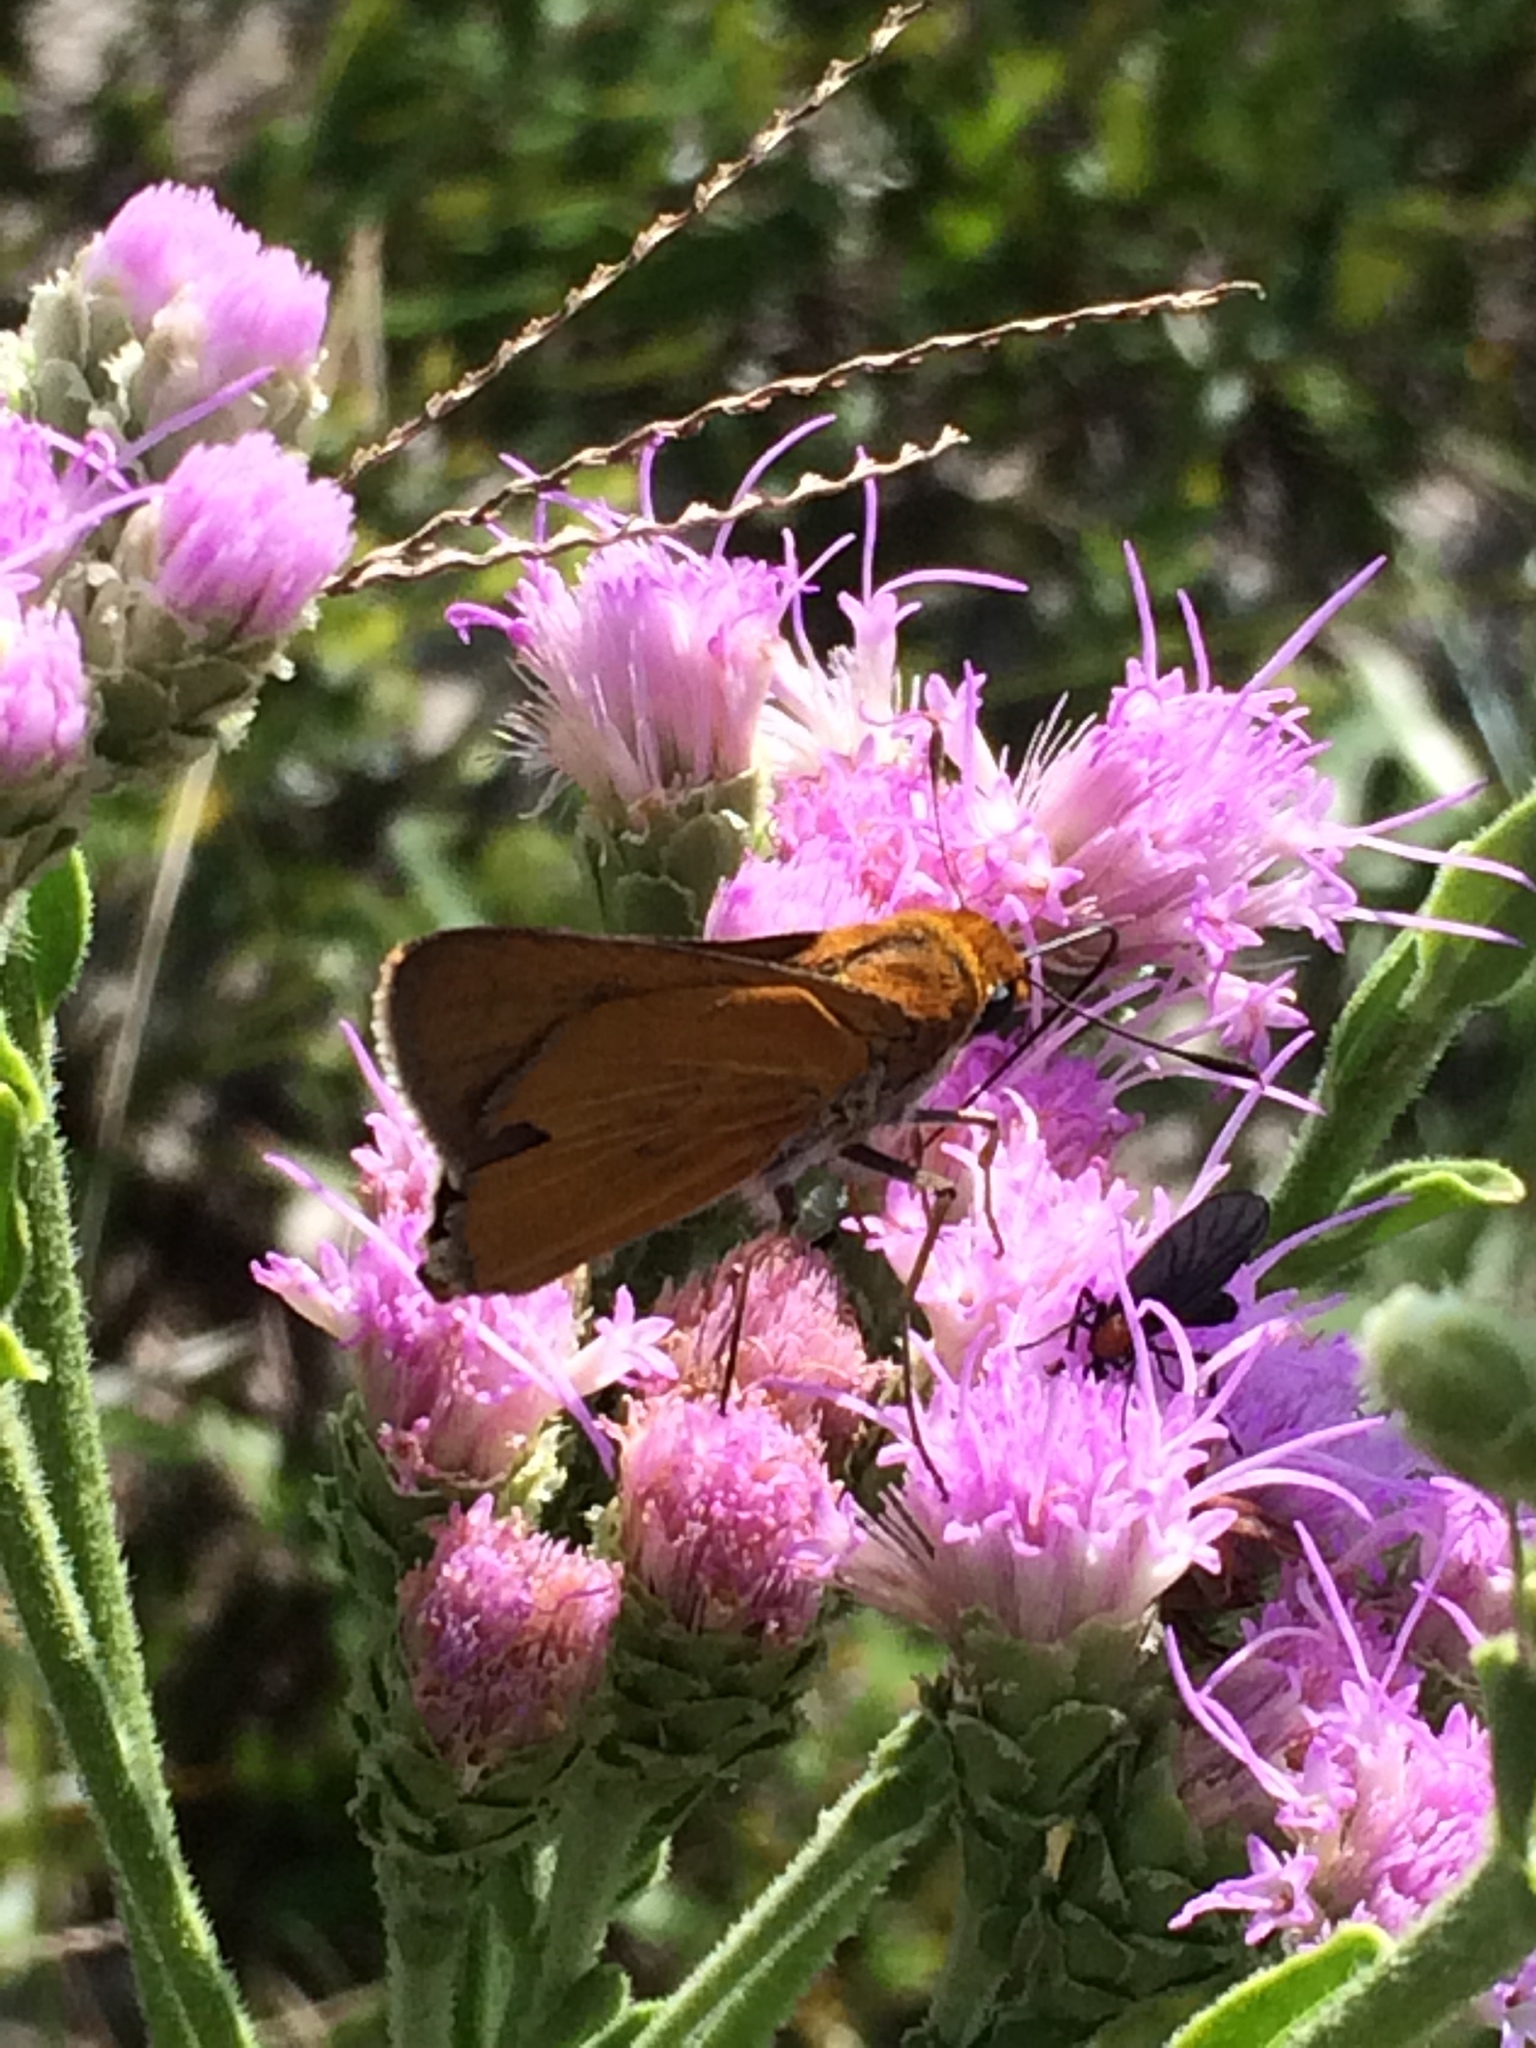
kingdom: Animalia
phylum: Arthropoda
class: Insecta
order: Lepidoptera
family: Hesperiidae
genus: Euphyes
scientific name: Euphyes arpa
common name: Palmetto skipper
